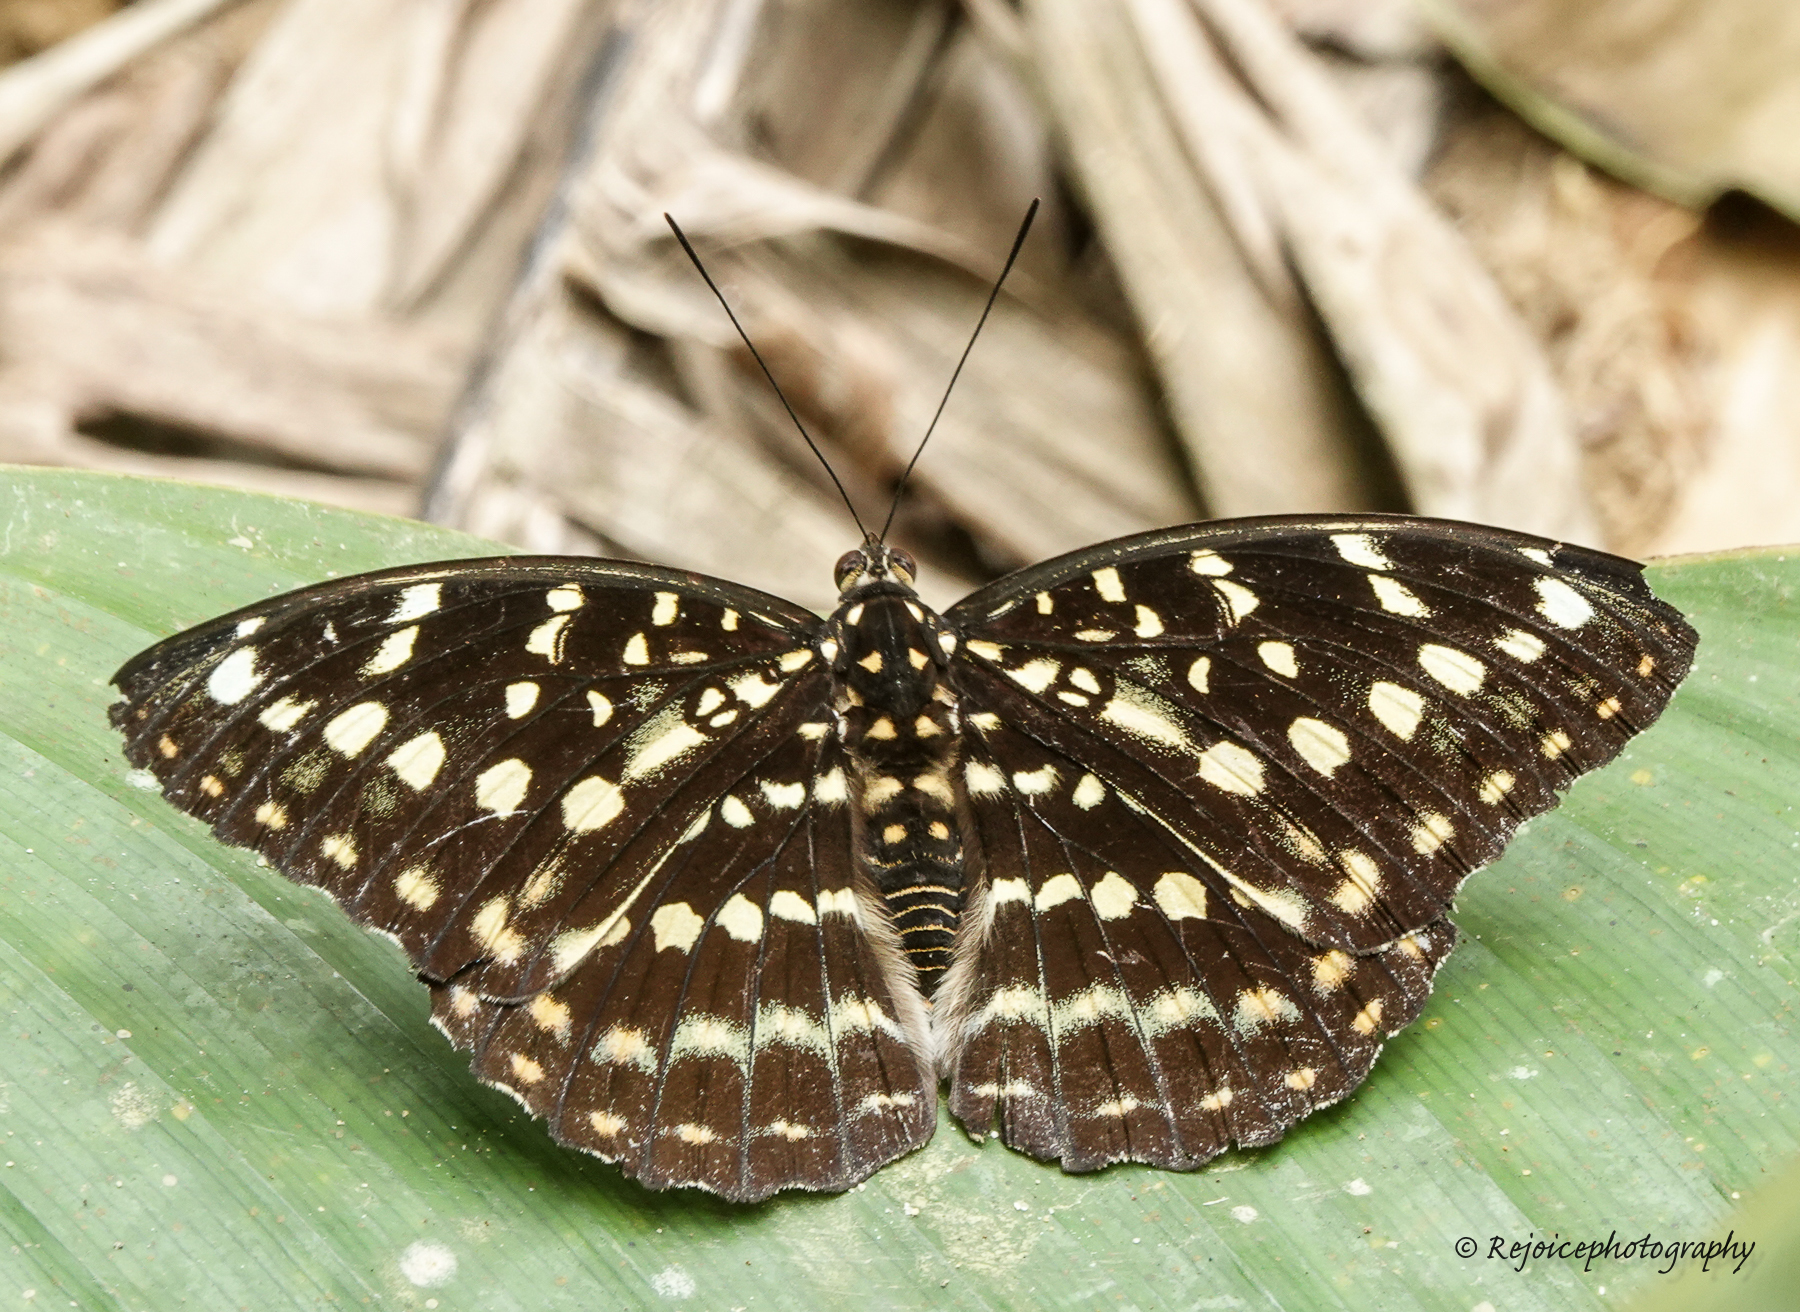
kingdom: Animalia
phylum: Arthropoda
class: Insecta
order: Lepidoptera
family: Nymphalidae
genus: Lexias
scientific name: Lexias dirtea
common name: Black-tipped archduke
